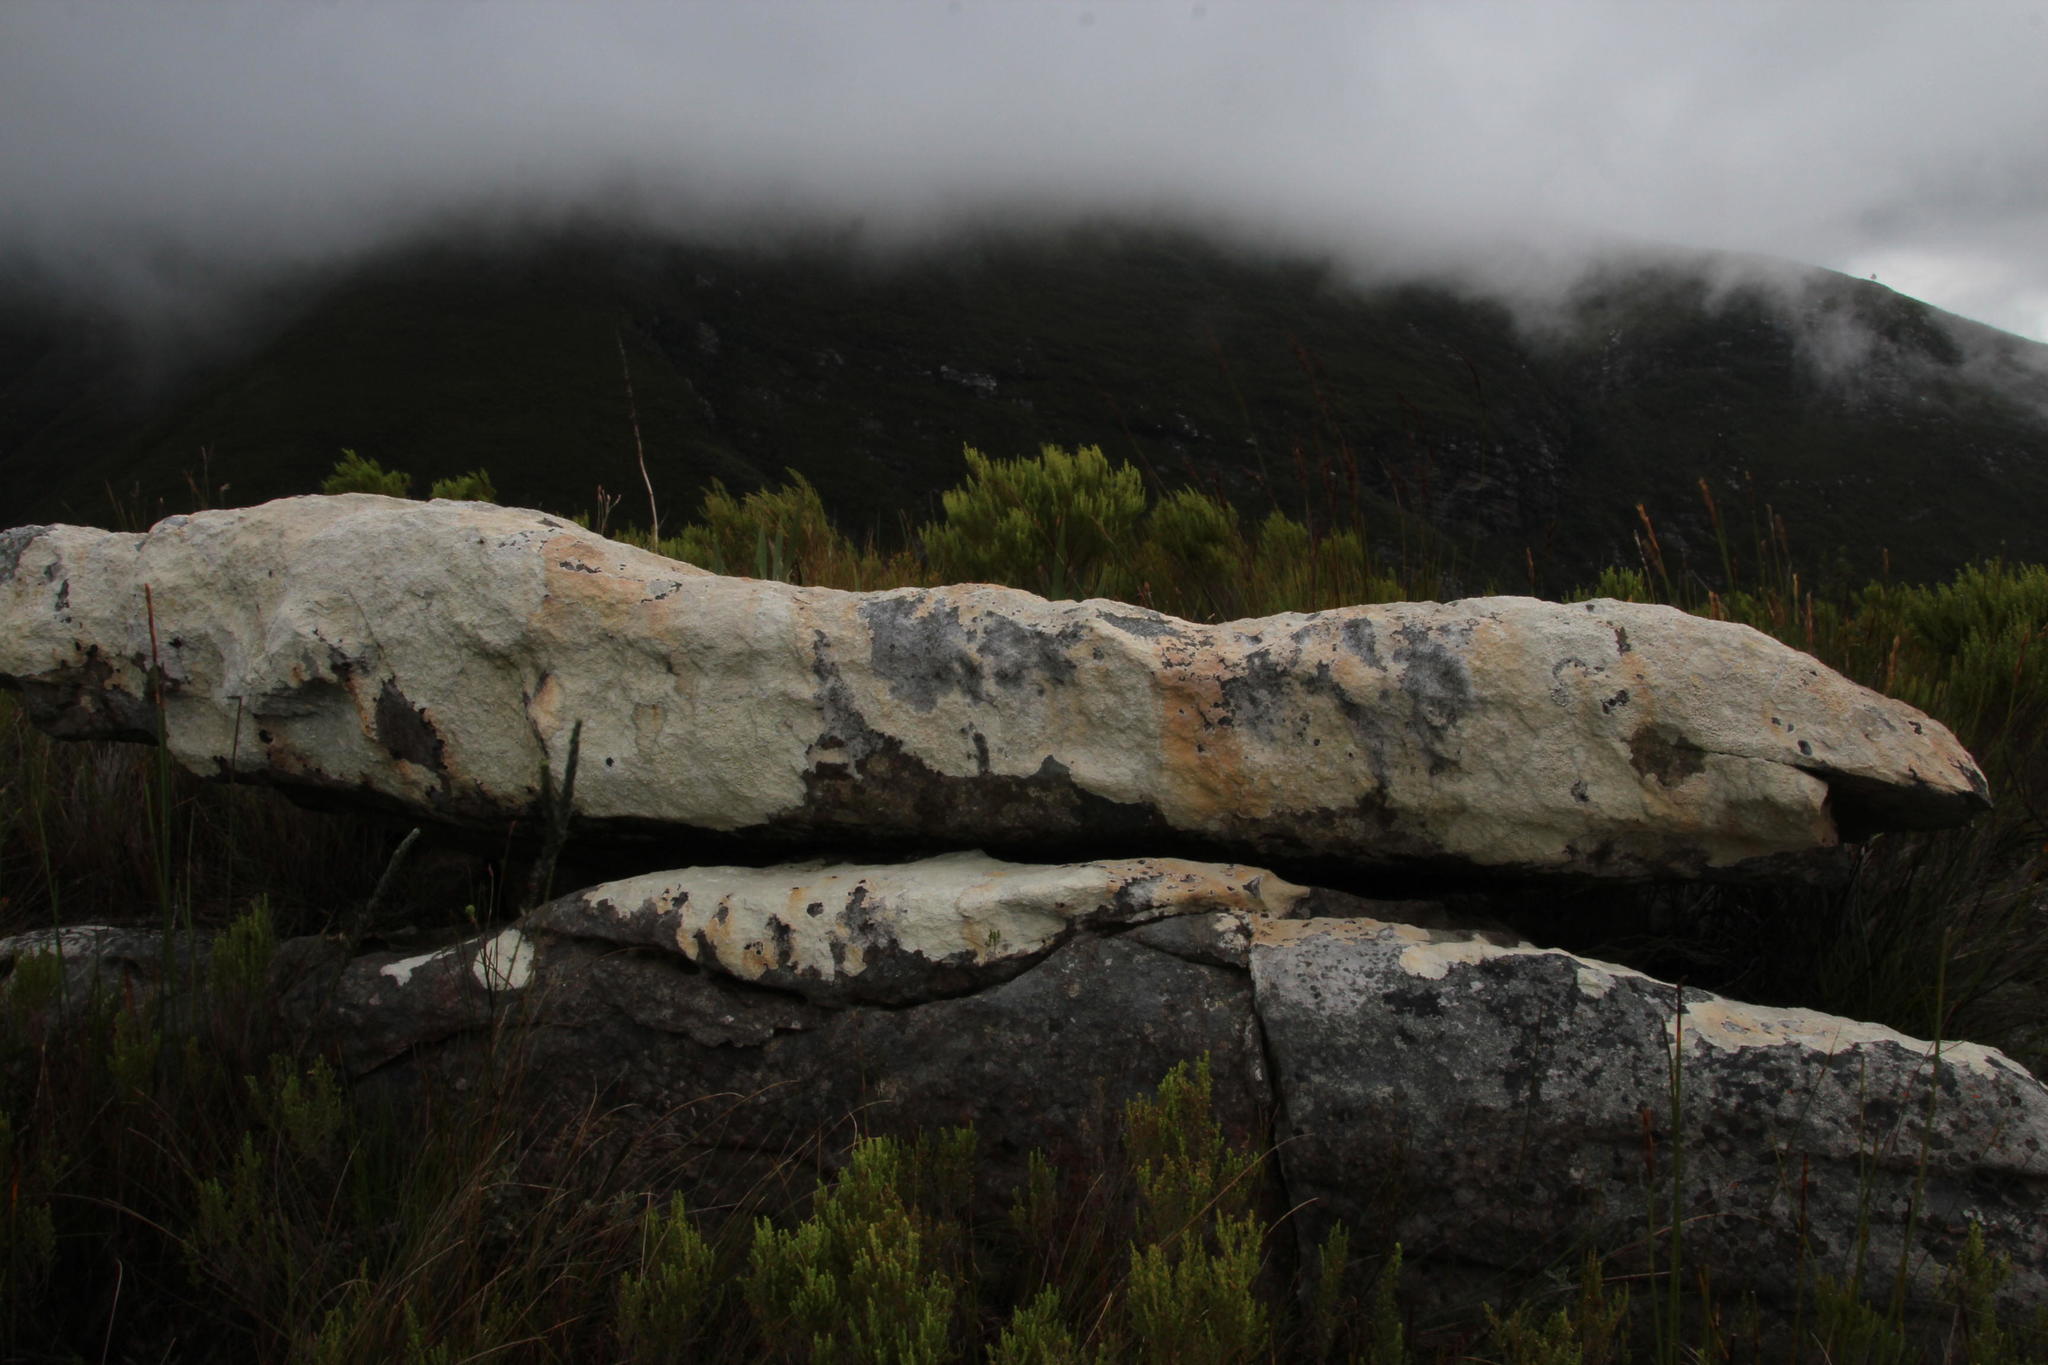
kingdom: Fungi
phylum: Ascomycota
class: Lecanoromycetes
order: Caliciales
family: Caliciaceae
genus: Dimelaena
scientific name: Dimelaena australiensis
